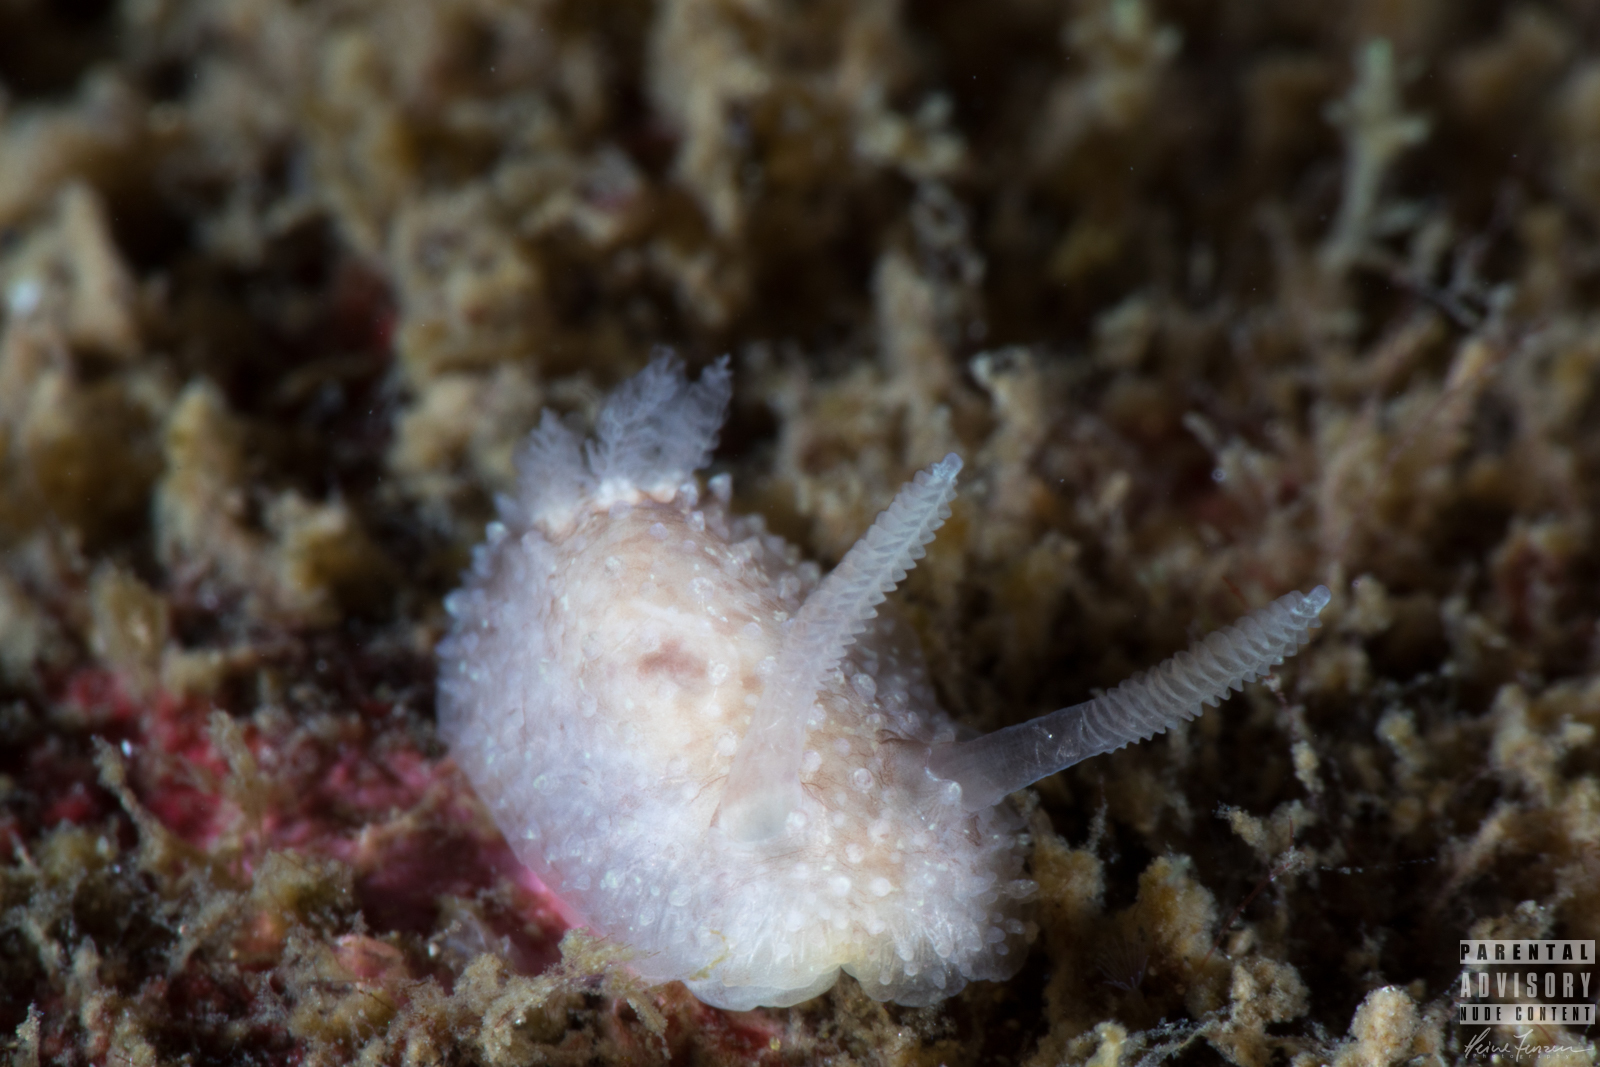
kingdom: Animalia
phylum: Mollusca
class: Gastropoda
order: Nudibranchia
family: Onchidorididae
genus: Acanthodoris
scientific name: Acanthodoris pilosa
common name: Hairy spiny doris
